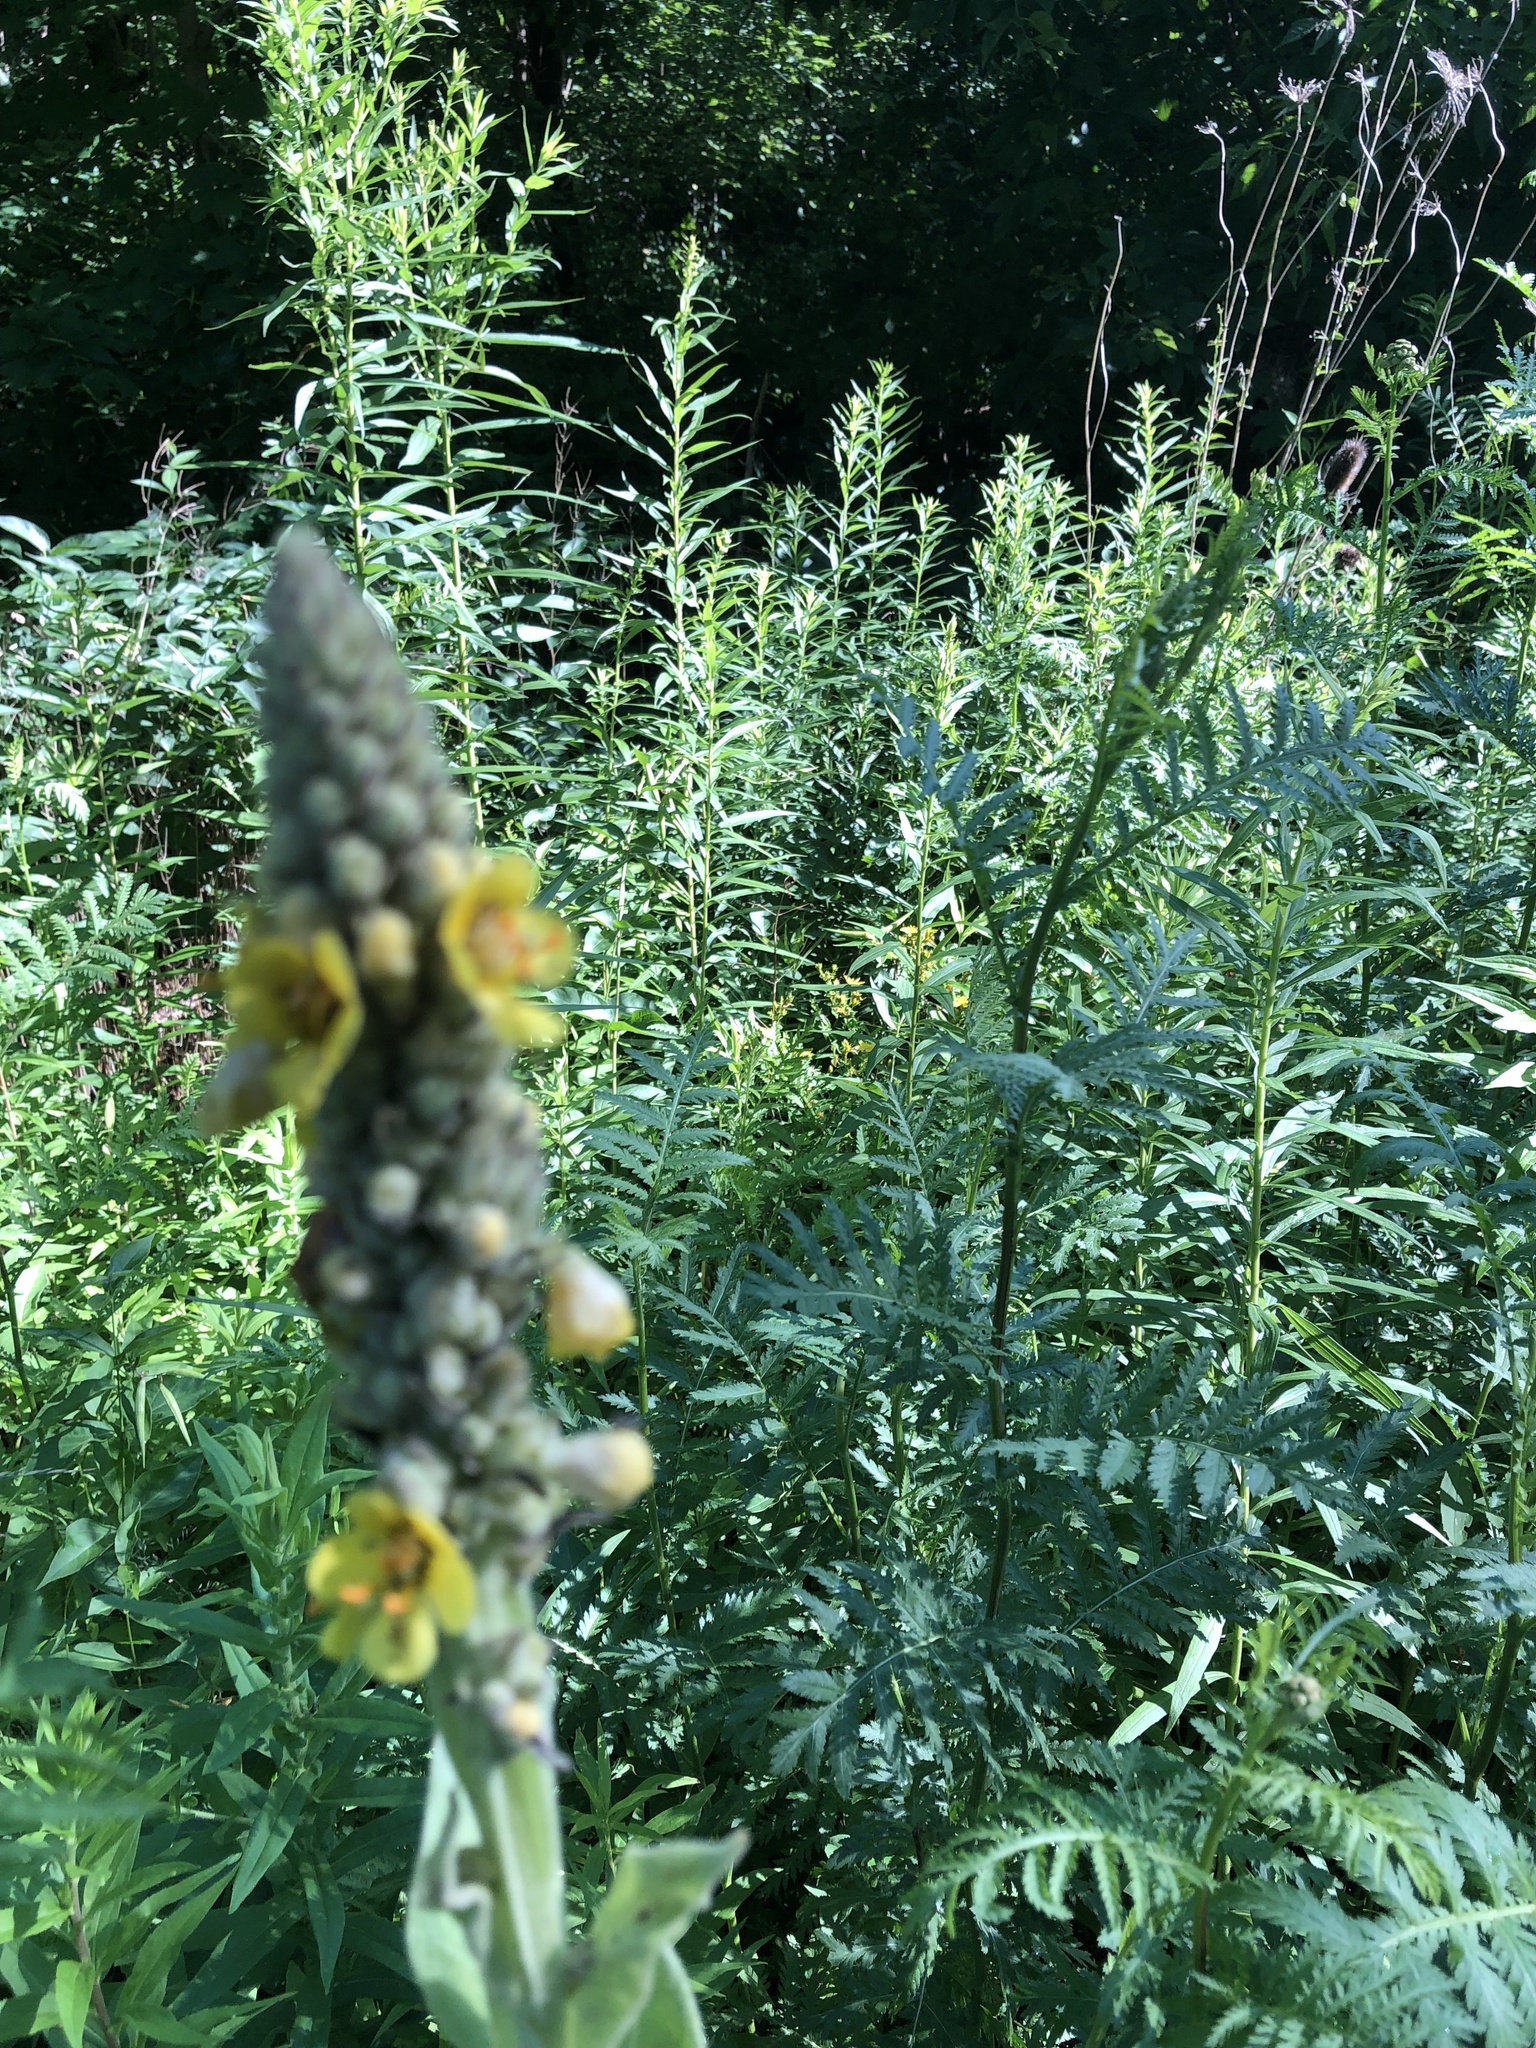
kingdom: Plantae
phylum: Tracheophyta
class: Magnoliopsida
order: Lamiales
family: Scrophulariaceae
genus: Verbascum
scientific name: Verbascum thapsus
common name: Common mullein
